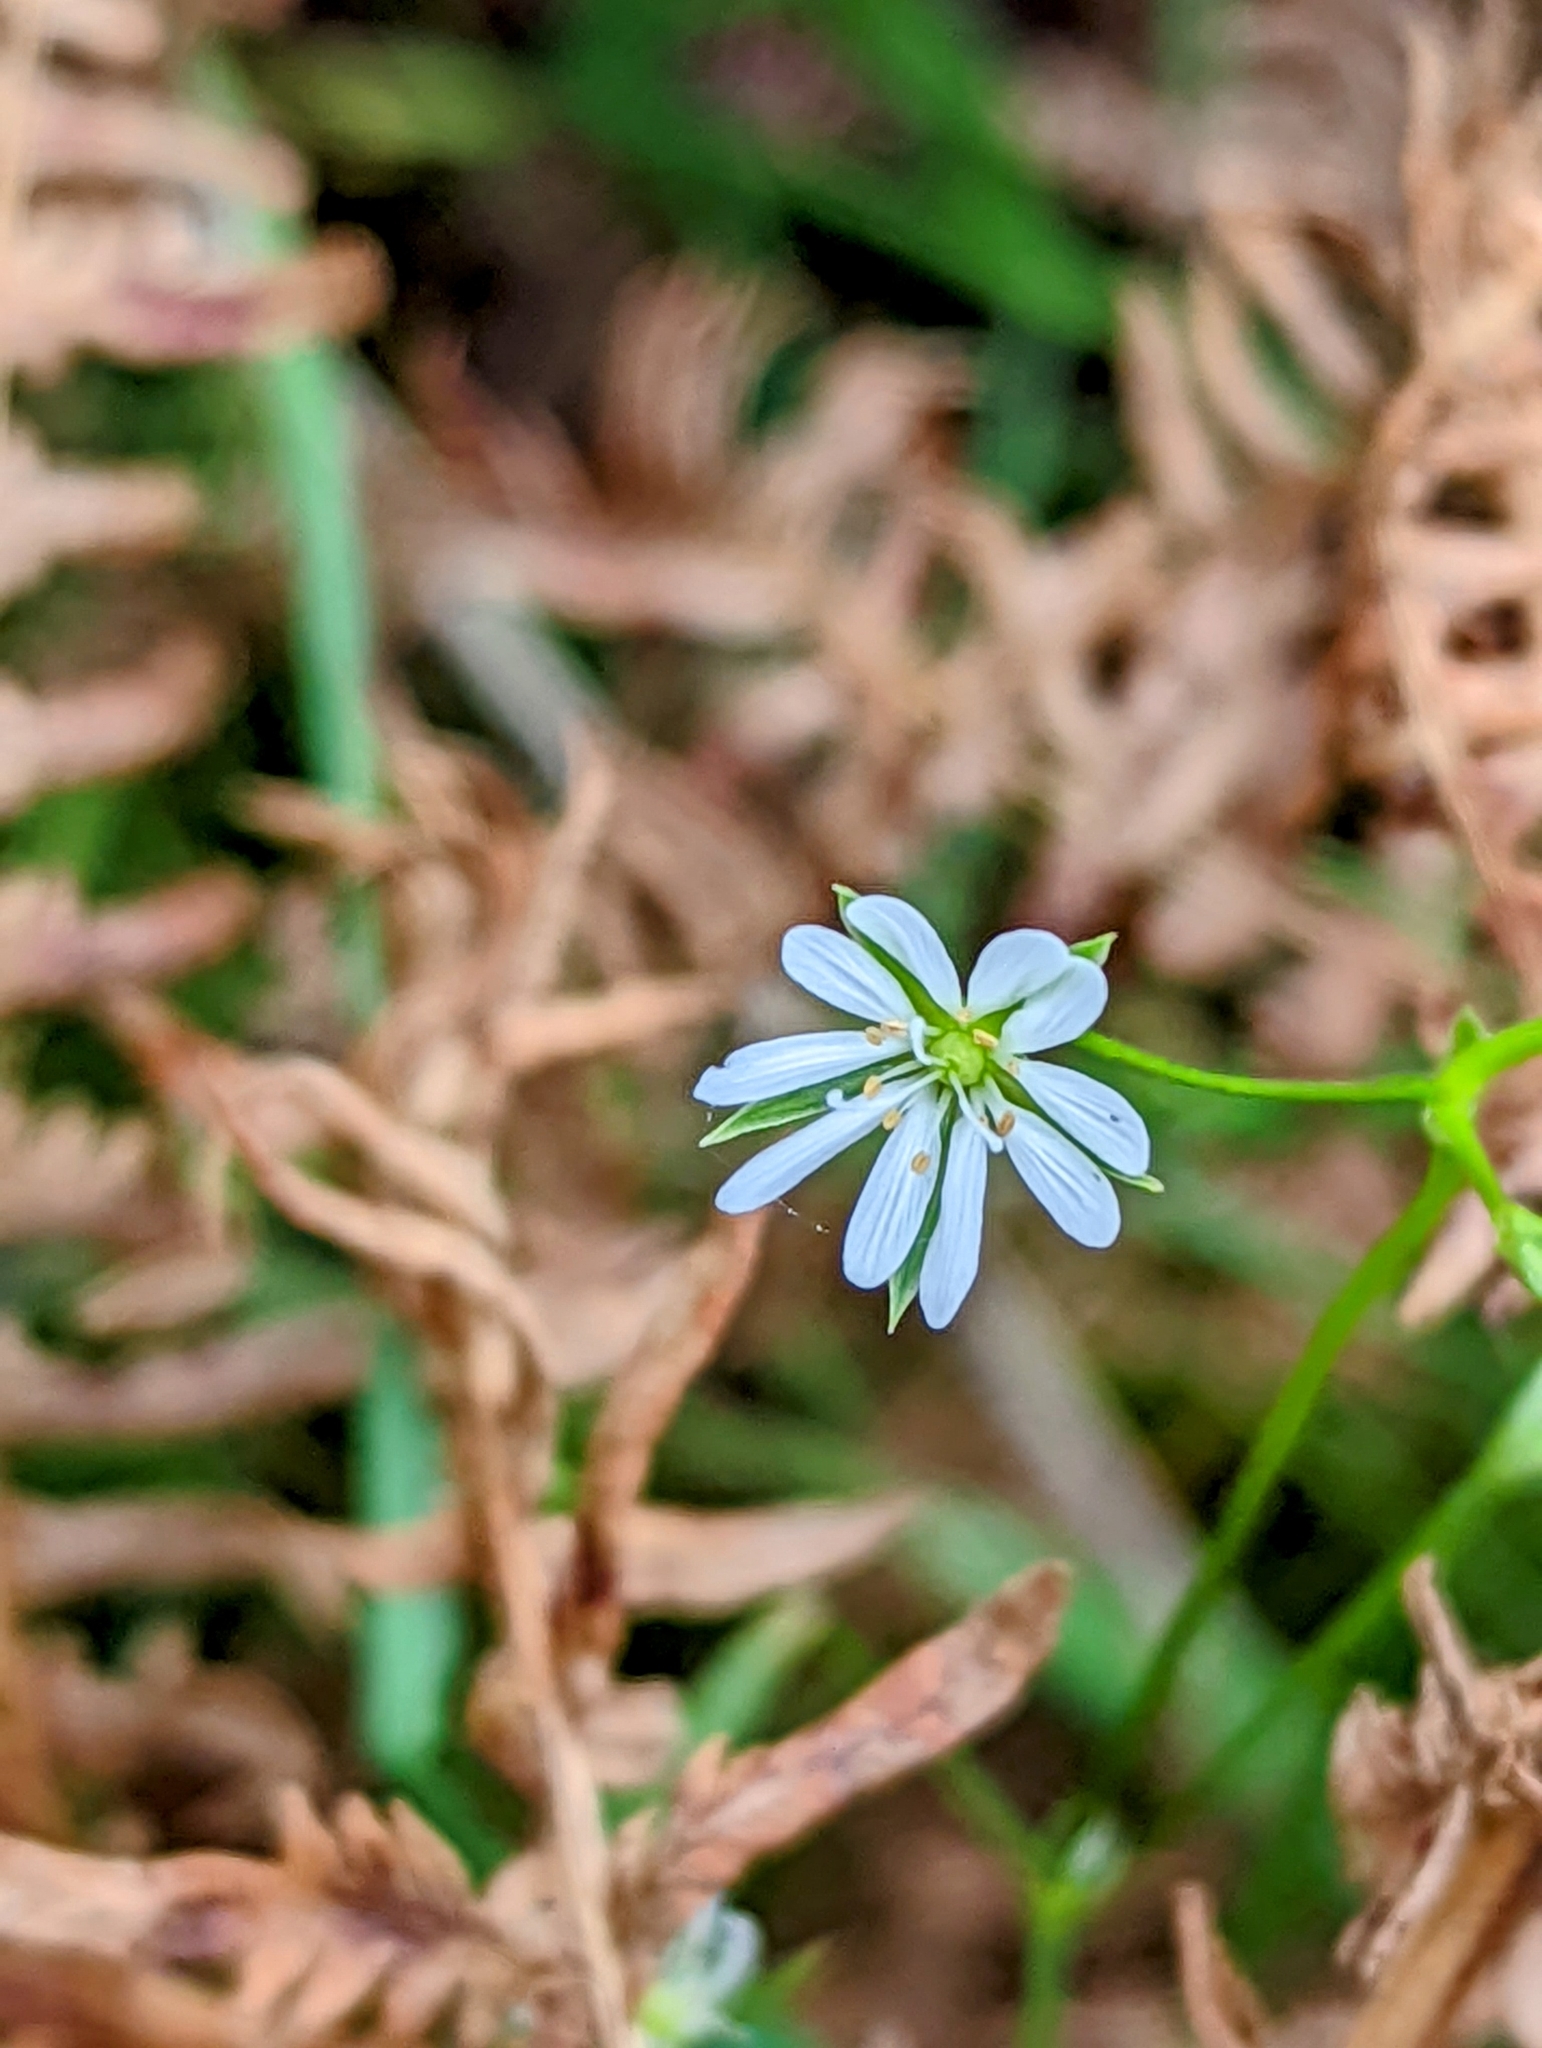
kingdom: Plantae
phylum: Tracheophyta
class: Magnoliopsida
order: Caryophyllales
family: Caryophyllaceae
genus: Stellaria
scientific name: Stellaria graminea
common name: Grass-like starwort
